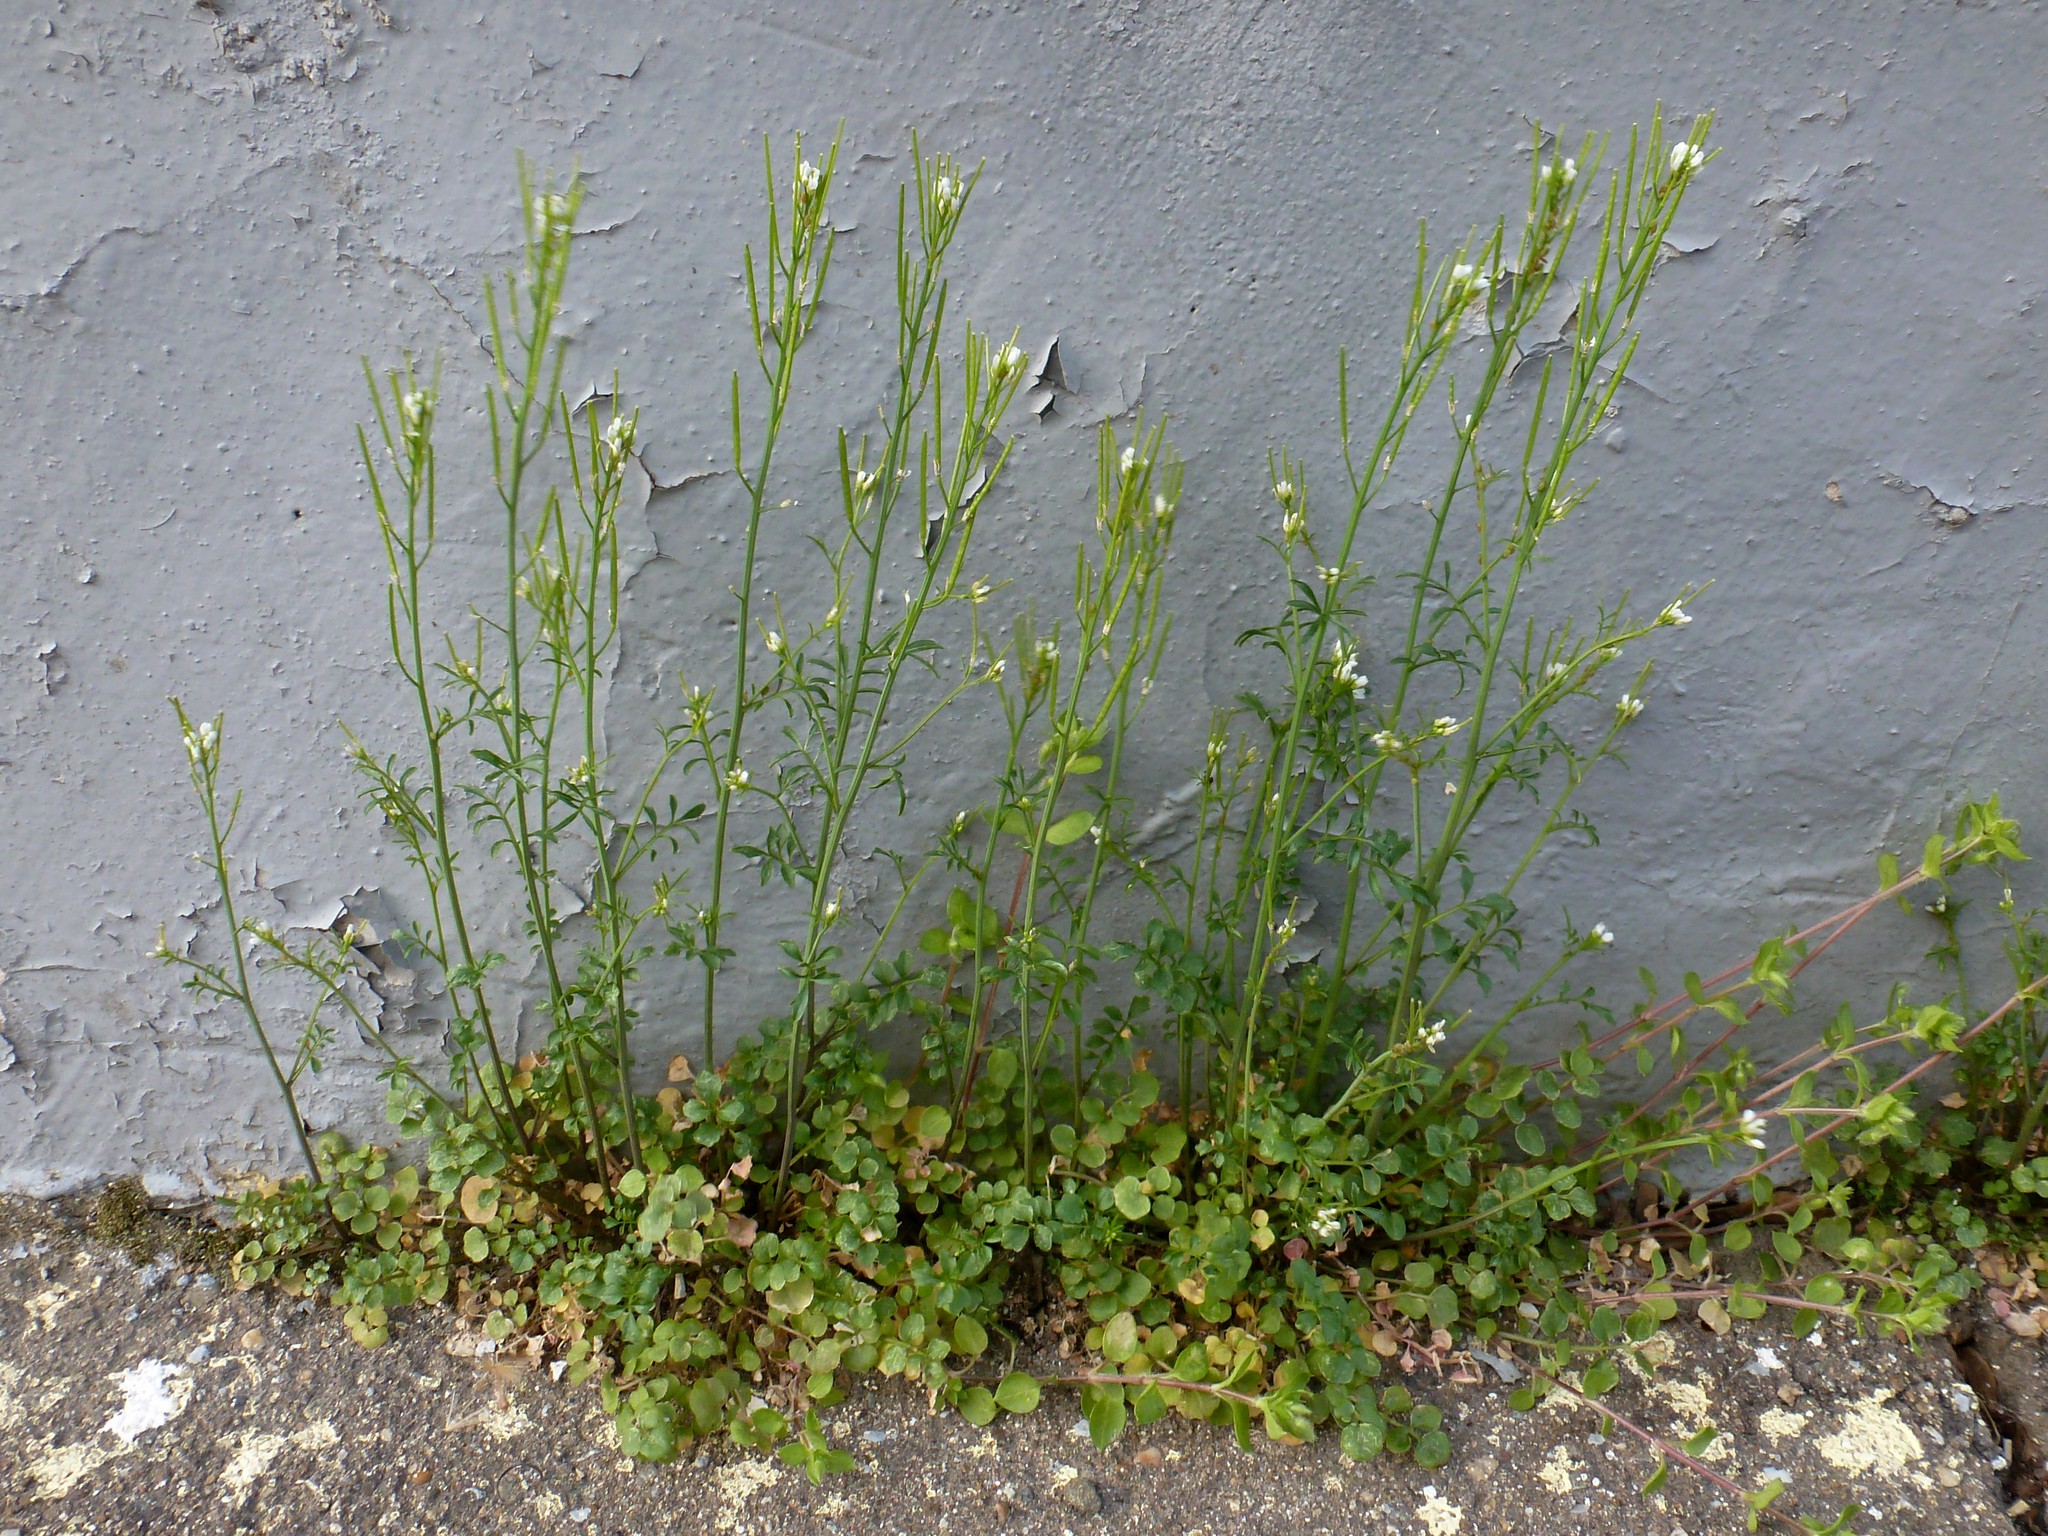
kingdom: Plantae
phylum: Tracheophyta
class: Magnoliopsida
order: Brassicales
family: Brassicaceae
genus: Cardamine
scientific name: Cardamine hirsuta
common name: Hairy bittercress
